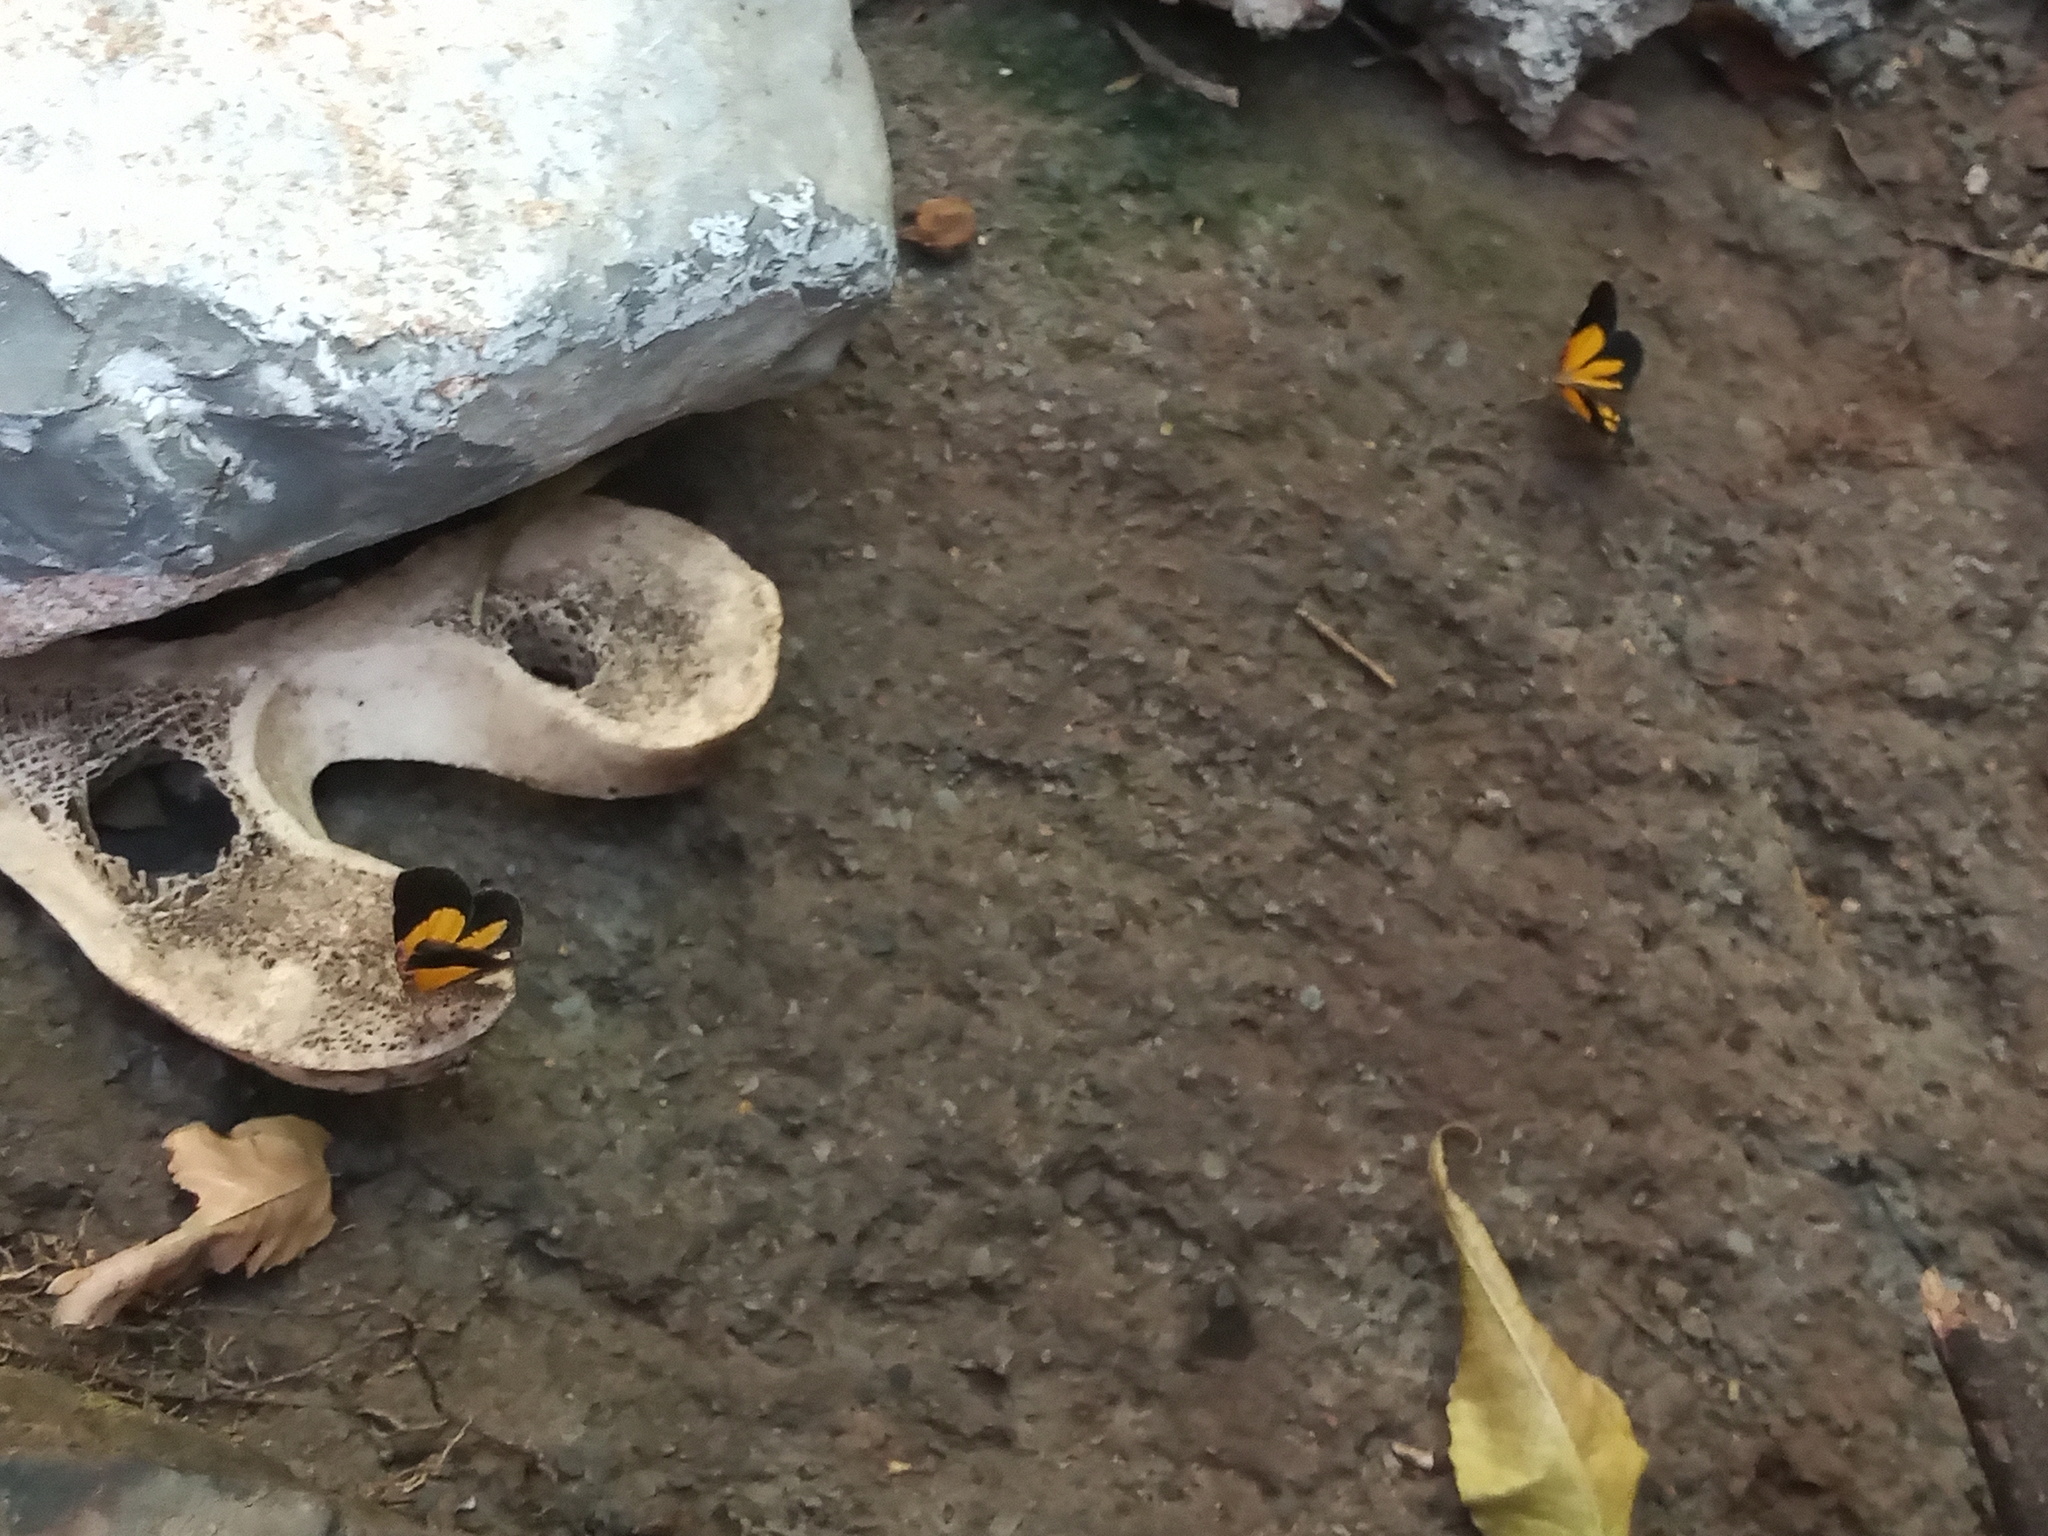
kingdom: Animalia
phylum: Arthropoda
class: Insecta
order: Lepidoptera
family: Geometridae
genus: Heterusia
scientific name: Heterusia atalantata
